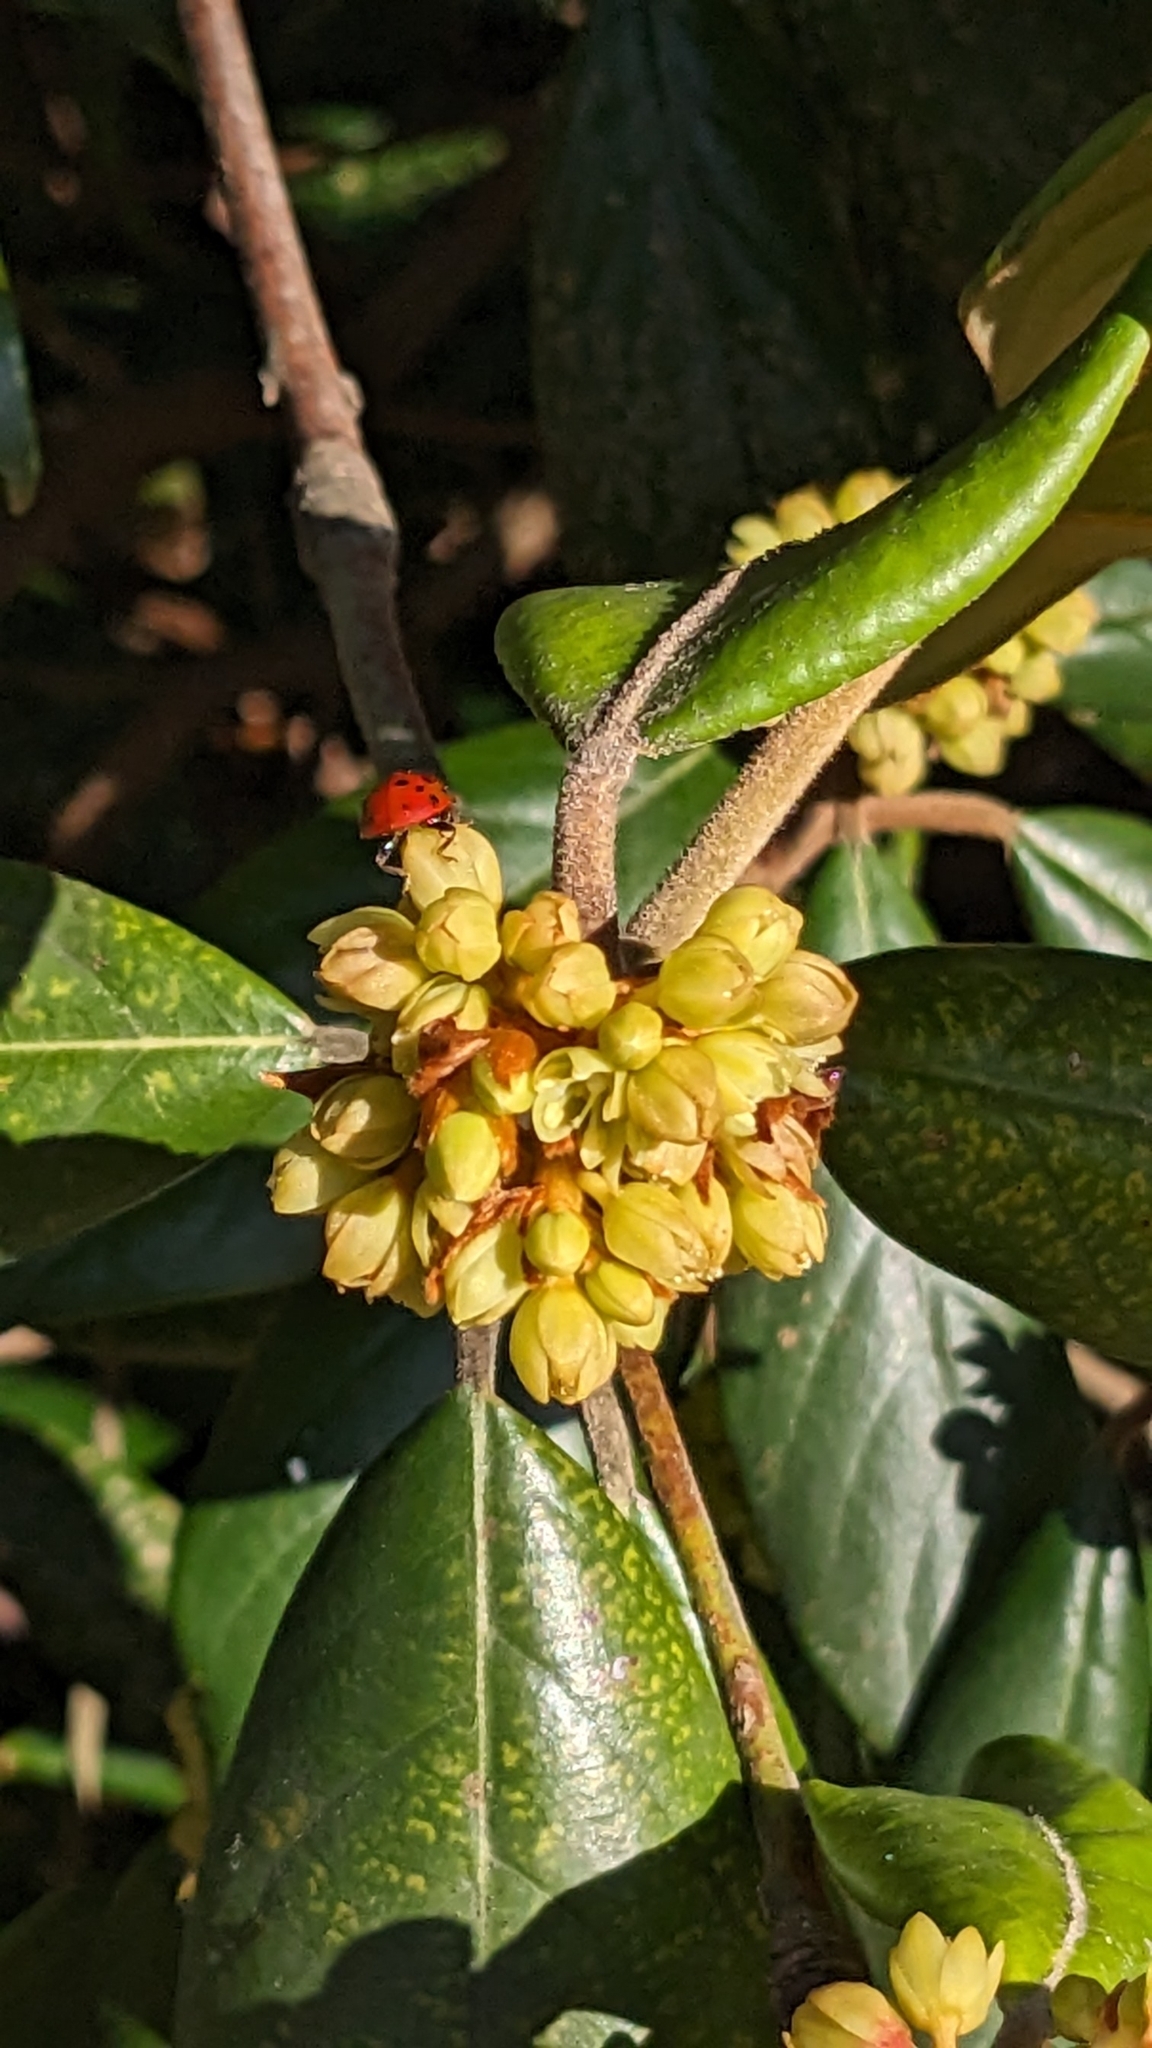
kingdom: Animalia
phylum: Arthropoda
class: Insecta
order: Coleoptera
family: Coccinellidae
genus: Harmonia
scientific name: Harmonia axyridis
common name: Harlequin ladybird
